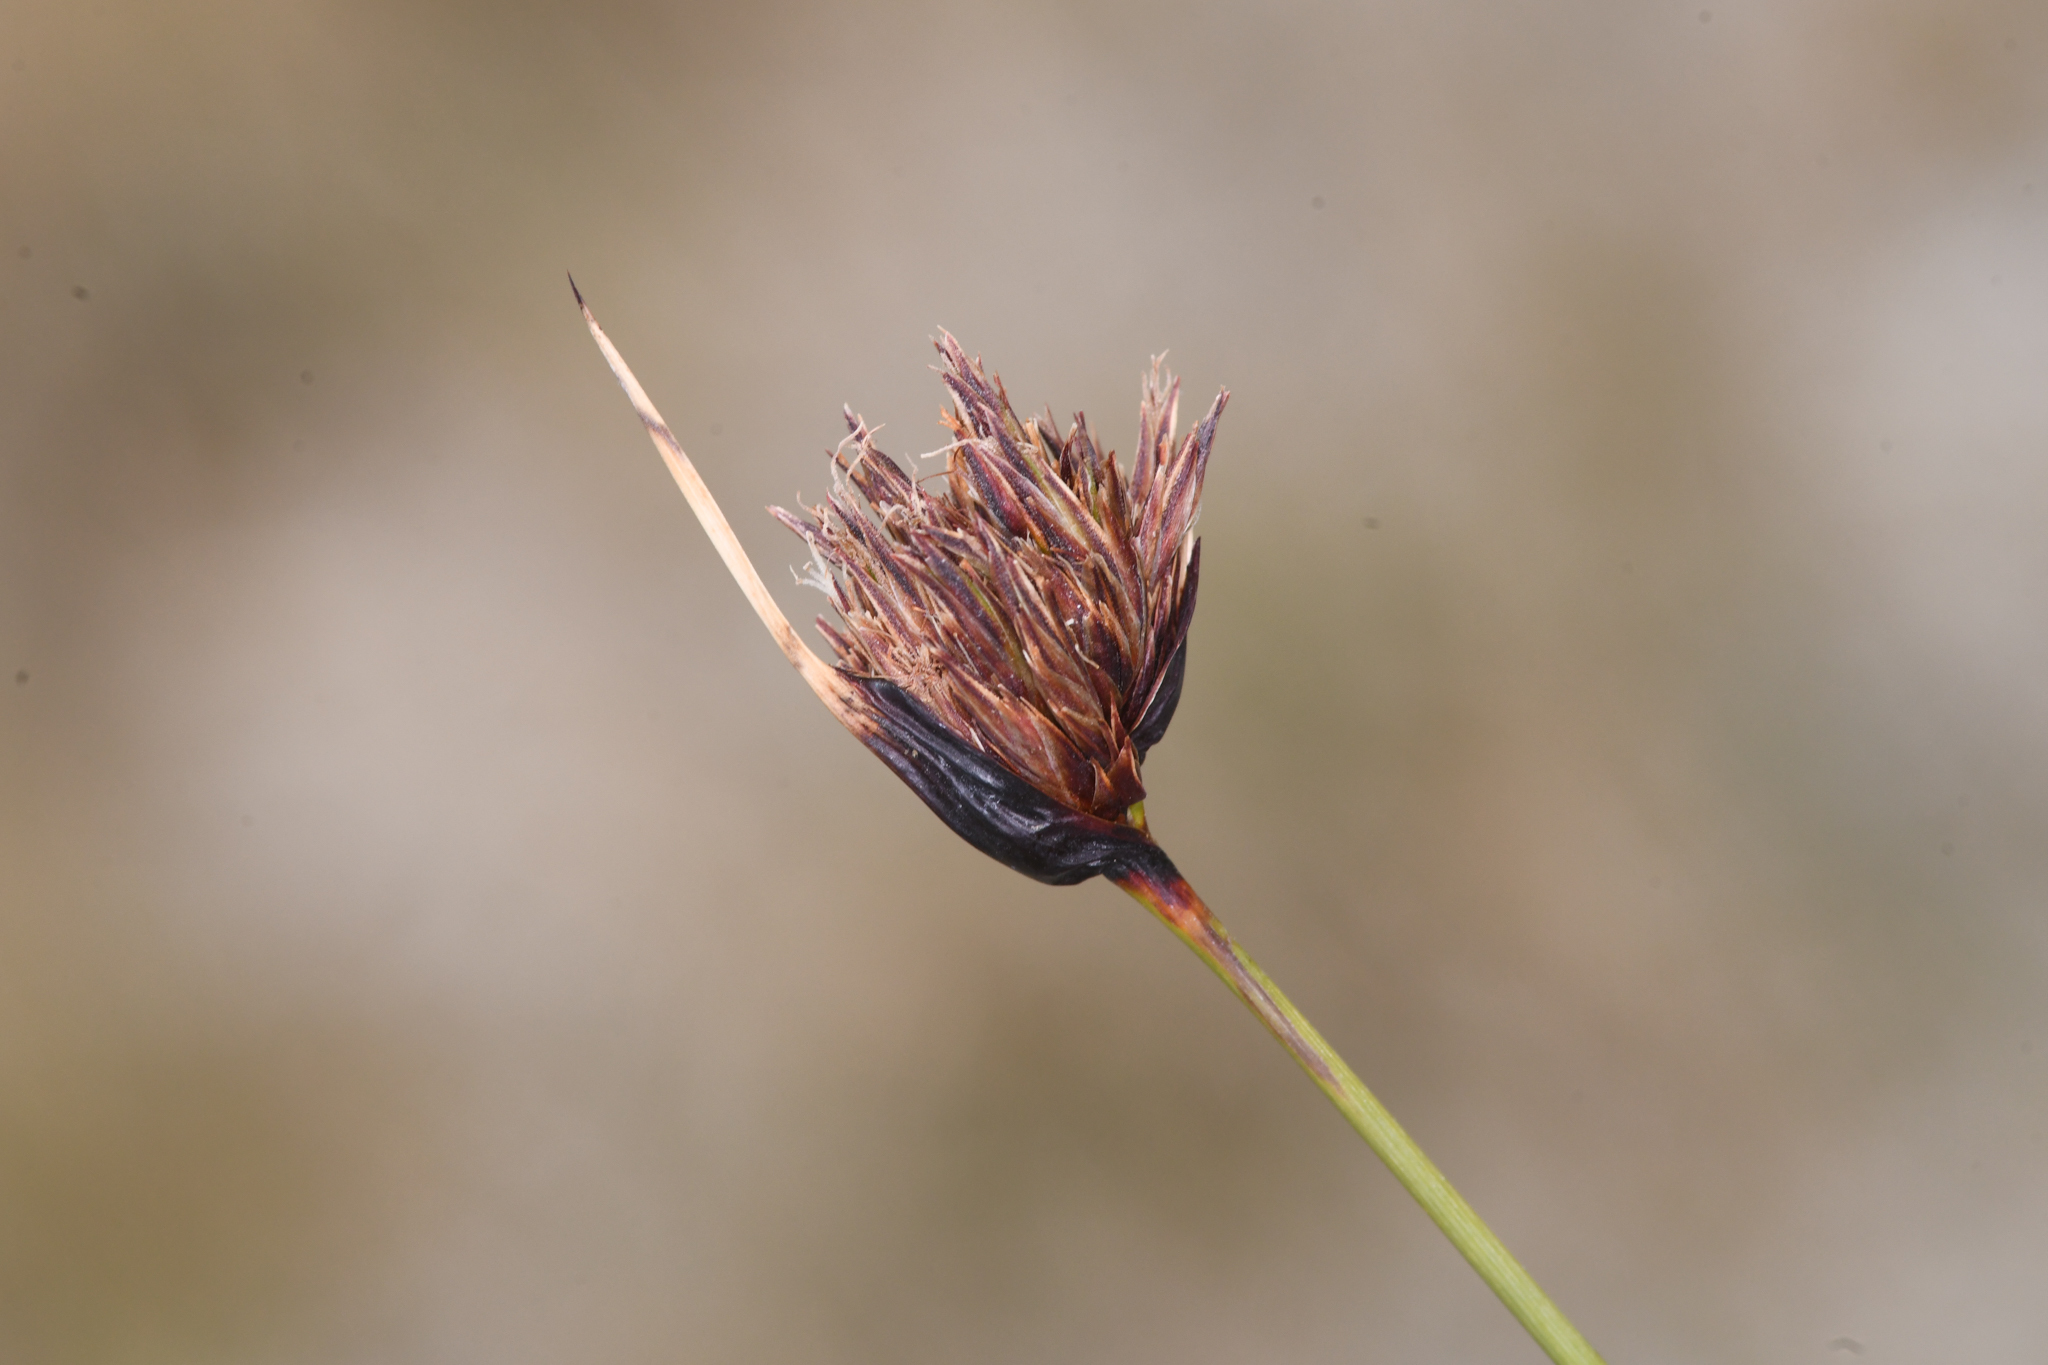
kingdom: Plantae
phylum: Tracheophyta
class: Liliopsida
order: Poales
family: Cyperaceae
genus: Schoenus
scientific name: Schoenus nigricans
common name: Black bog-rush
